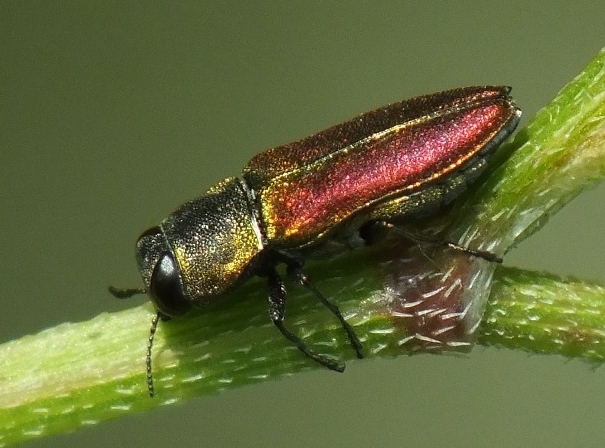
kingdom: Animalia
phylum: Arthropoda
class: Insecta
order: Coleoptera
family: Buprestidae
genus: Anthaxia
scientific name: Anthaxia cichorii
